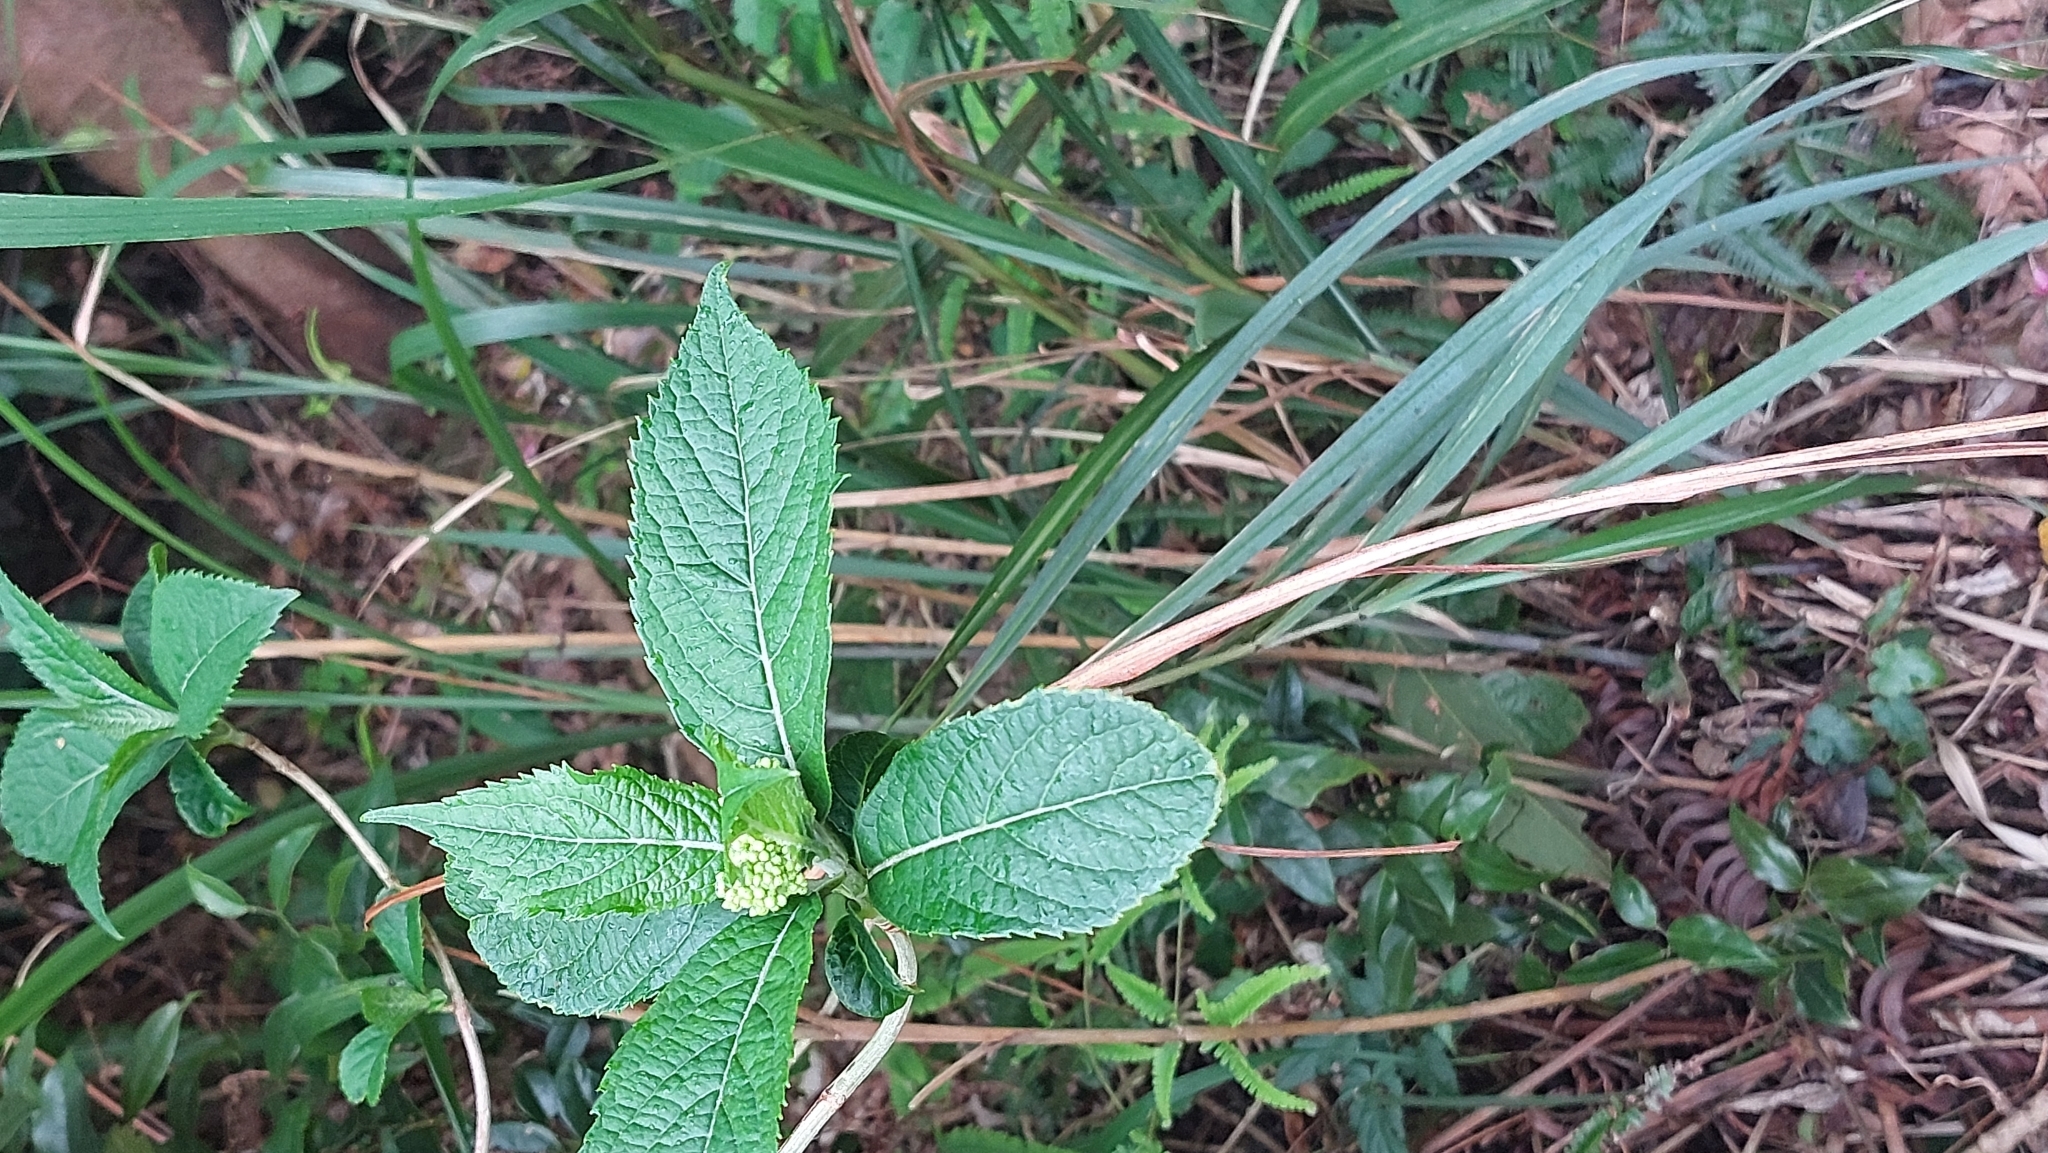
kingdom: Plantae
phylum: Tracheophyta
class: Magnoliopsida
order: Cornales
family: Hydrangeaceae
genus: Hydrangea
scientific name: Hydrangea chinensis
